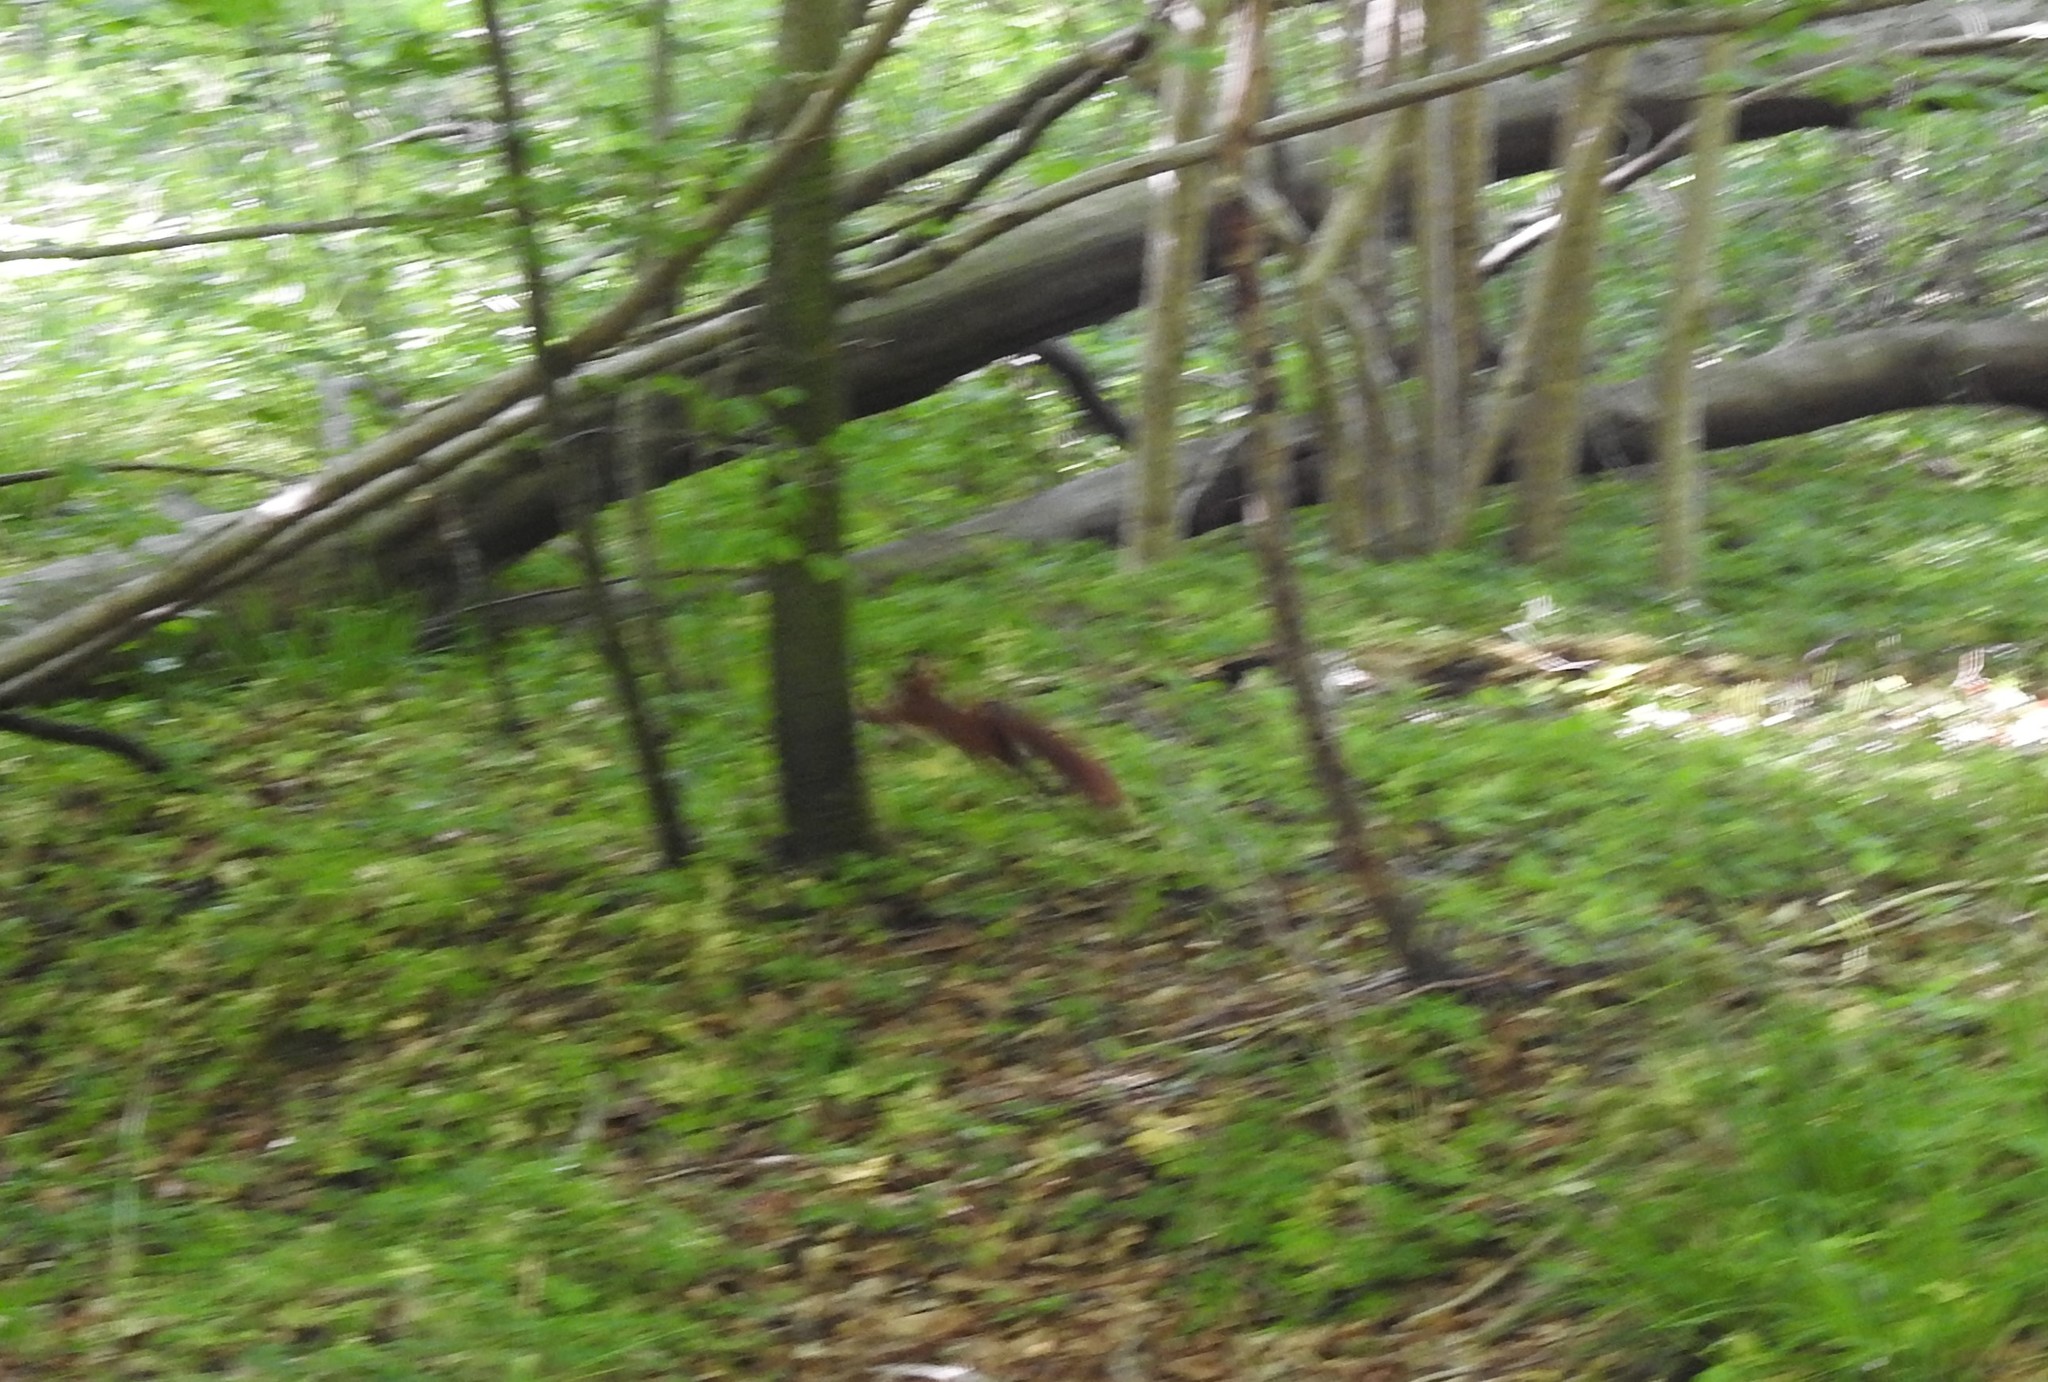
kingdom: Animalia
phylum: Chordata
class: Mammalia
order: Rodentia
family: Sciuridae
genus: Sciurus
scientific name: Sciurus vulgaris
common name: Eurasian red squirrel
